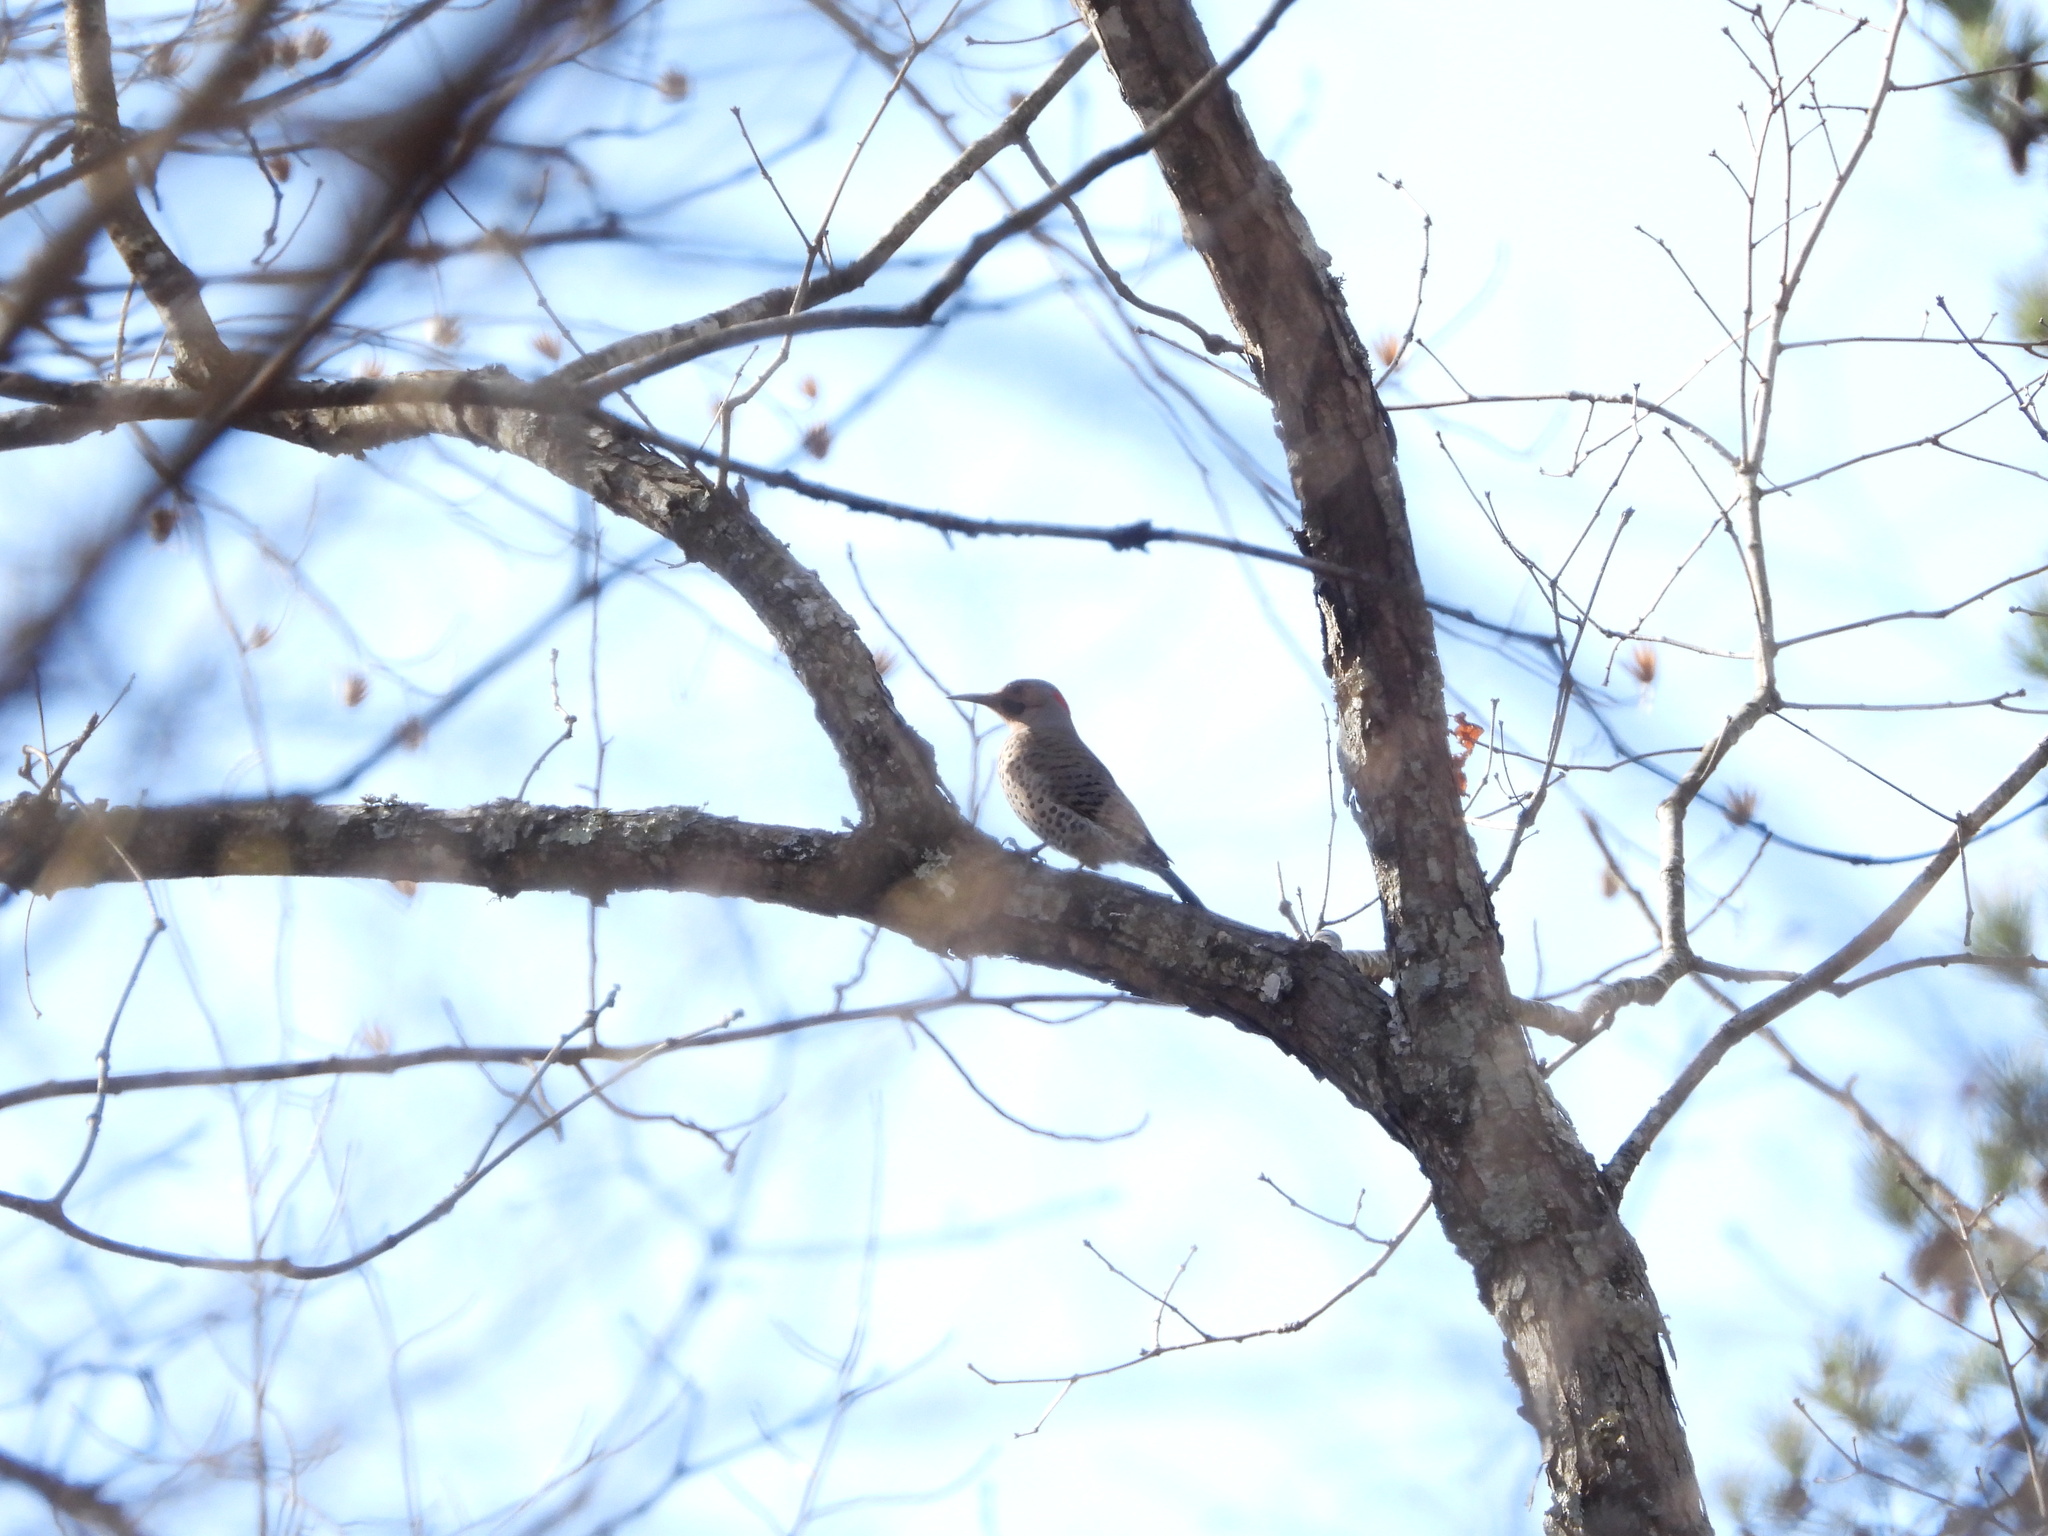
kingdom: Animalia
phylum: Chordata
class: Aves
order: Piciformes
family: Picidae
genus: Colaptes
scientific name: Colaptes auratus
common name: Northern flicker
